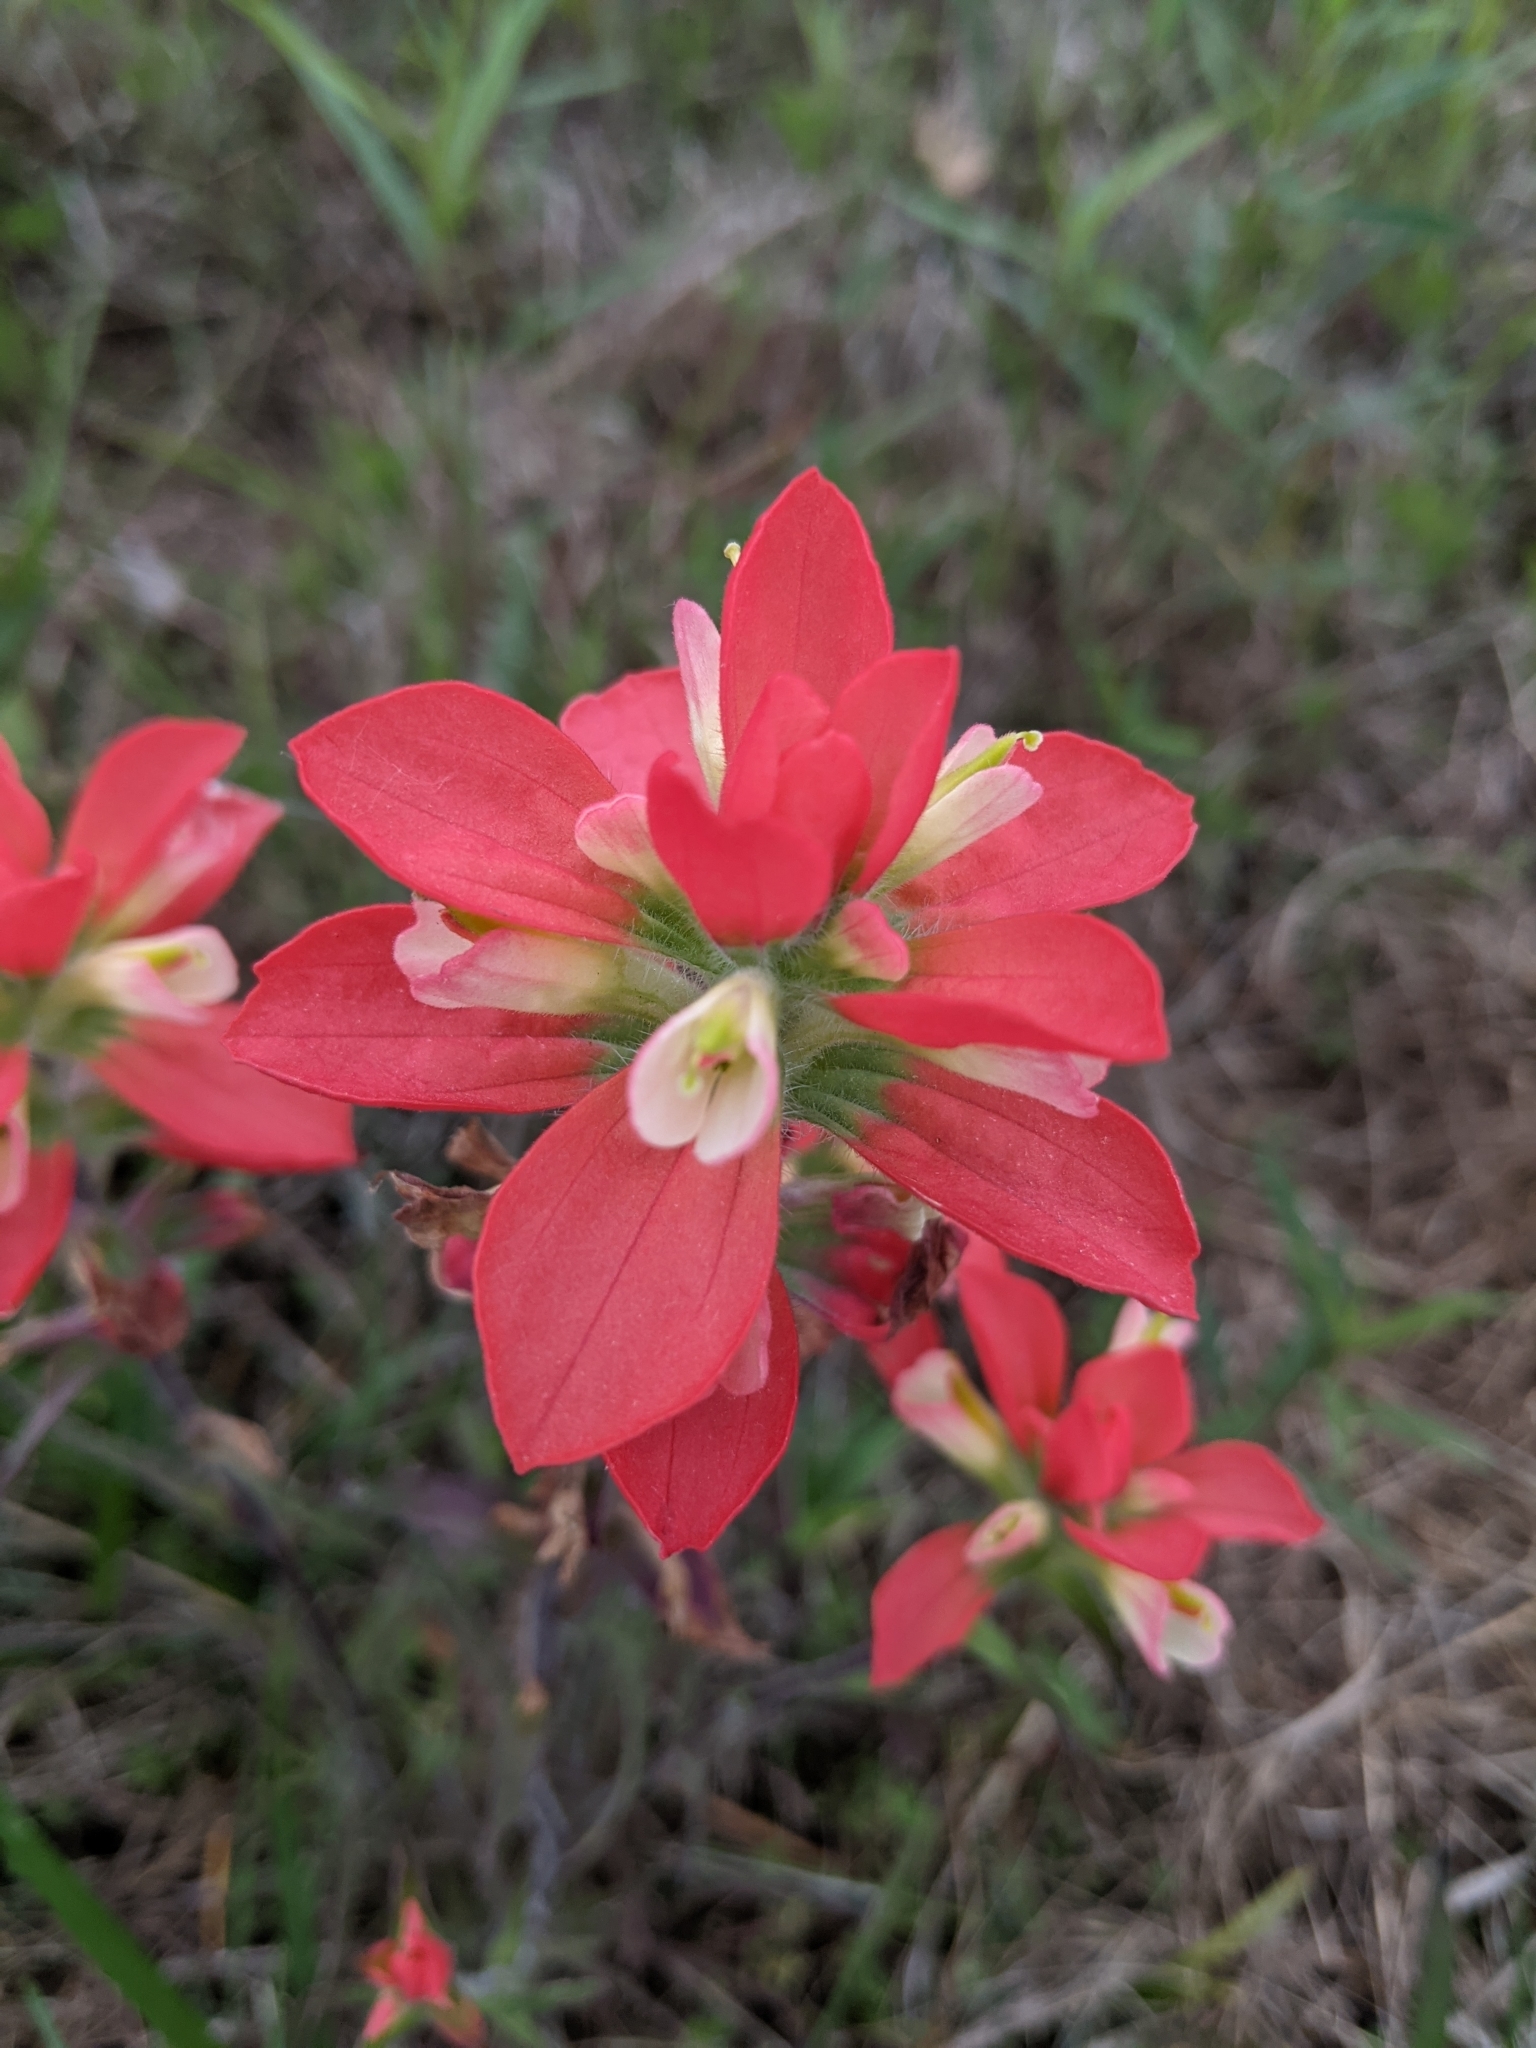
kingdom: Plantae
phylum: Tracheophyta
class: Magnoliopsida
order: Lamiales
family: Orobanchaceae
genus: Castilleja
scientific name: Castilleja indivisa
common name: Texas paintbrush
